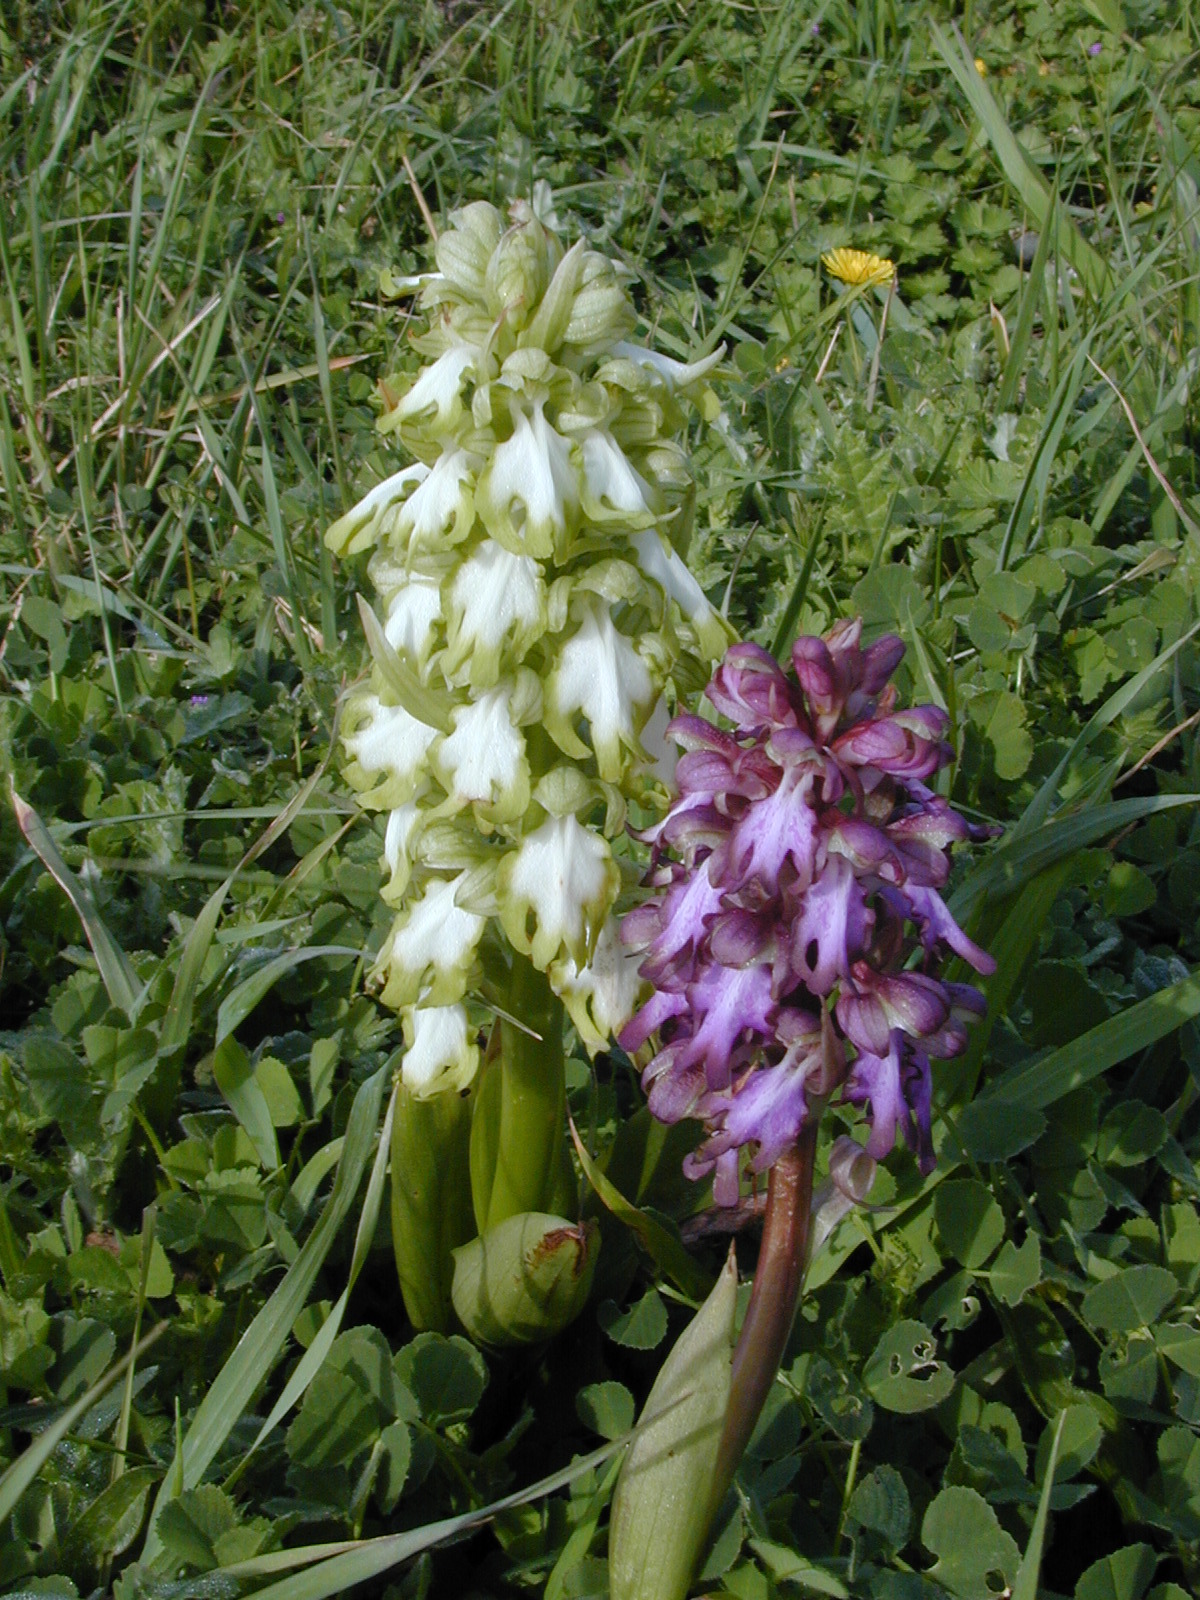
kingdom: Plantae
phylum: Tracheophyta
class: Liliopsida
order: Asparagales
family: Orchidaceae
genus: Himantoglossum
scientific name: Himantoglossum robertianum
